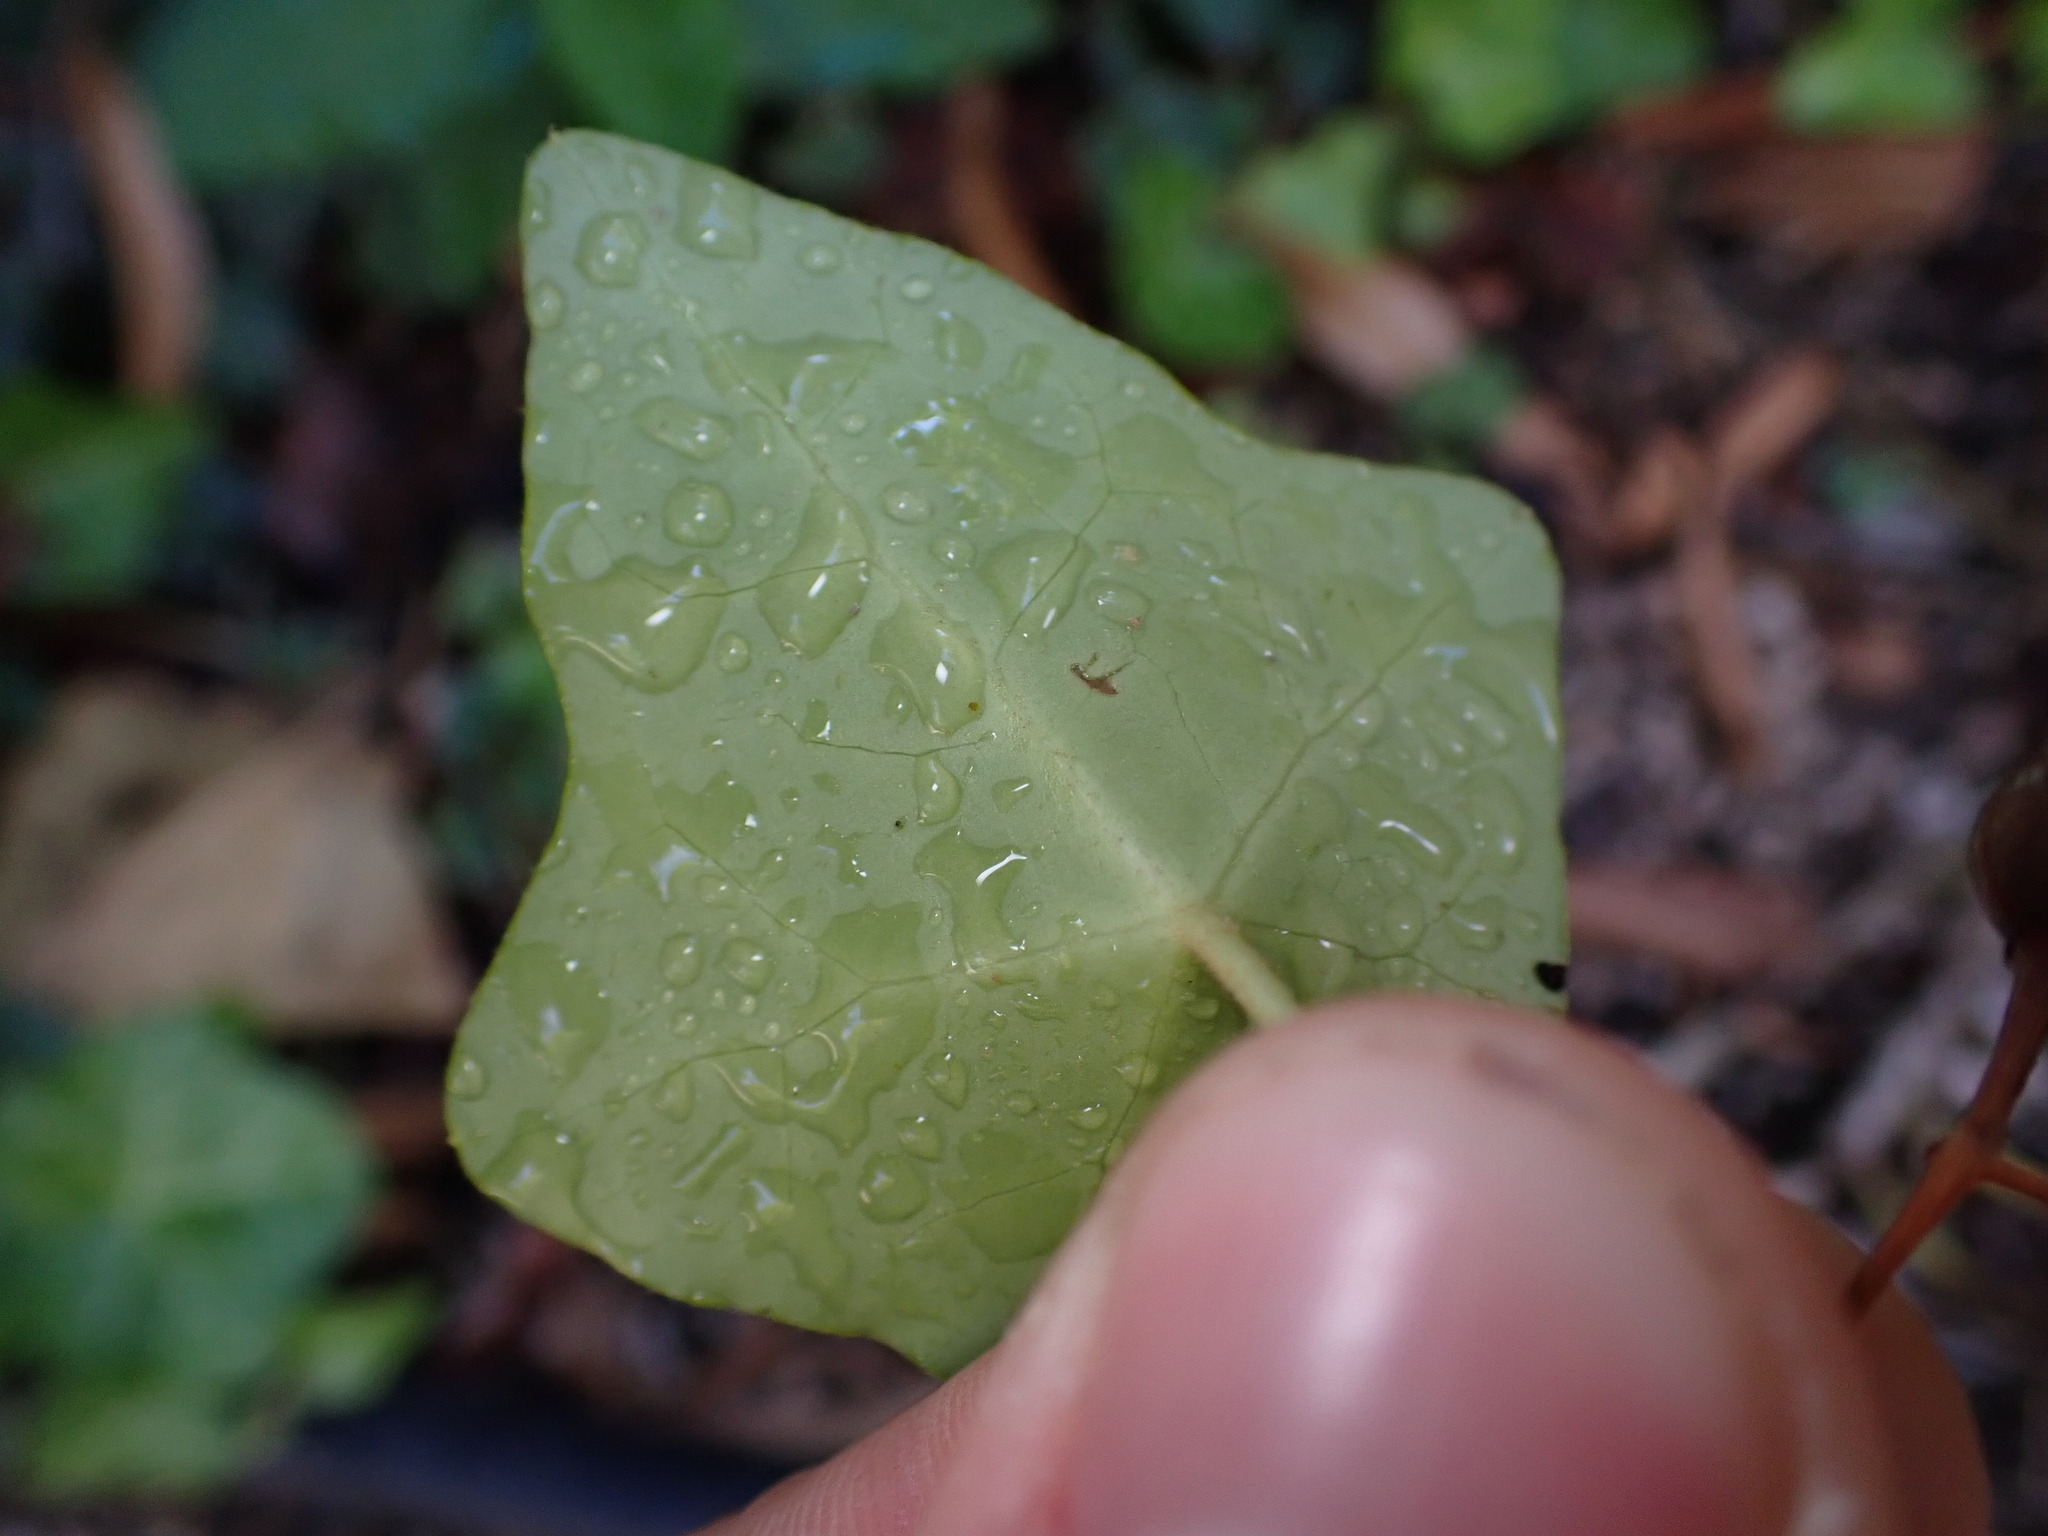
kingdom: Plantae
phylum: Tracheophyta
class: Magnoliopsida
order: Apiales
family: Araliaceae
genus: Hedera
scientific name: Hedera helix
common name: Ivy
